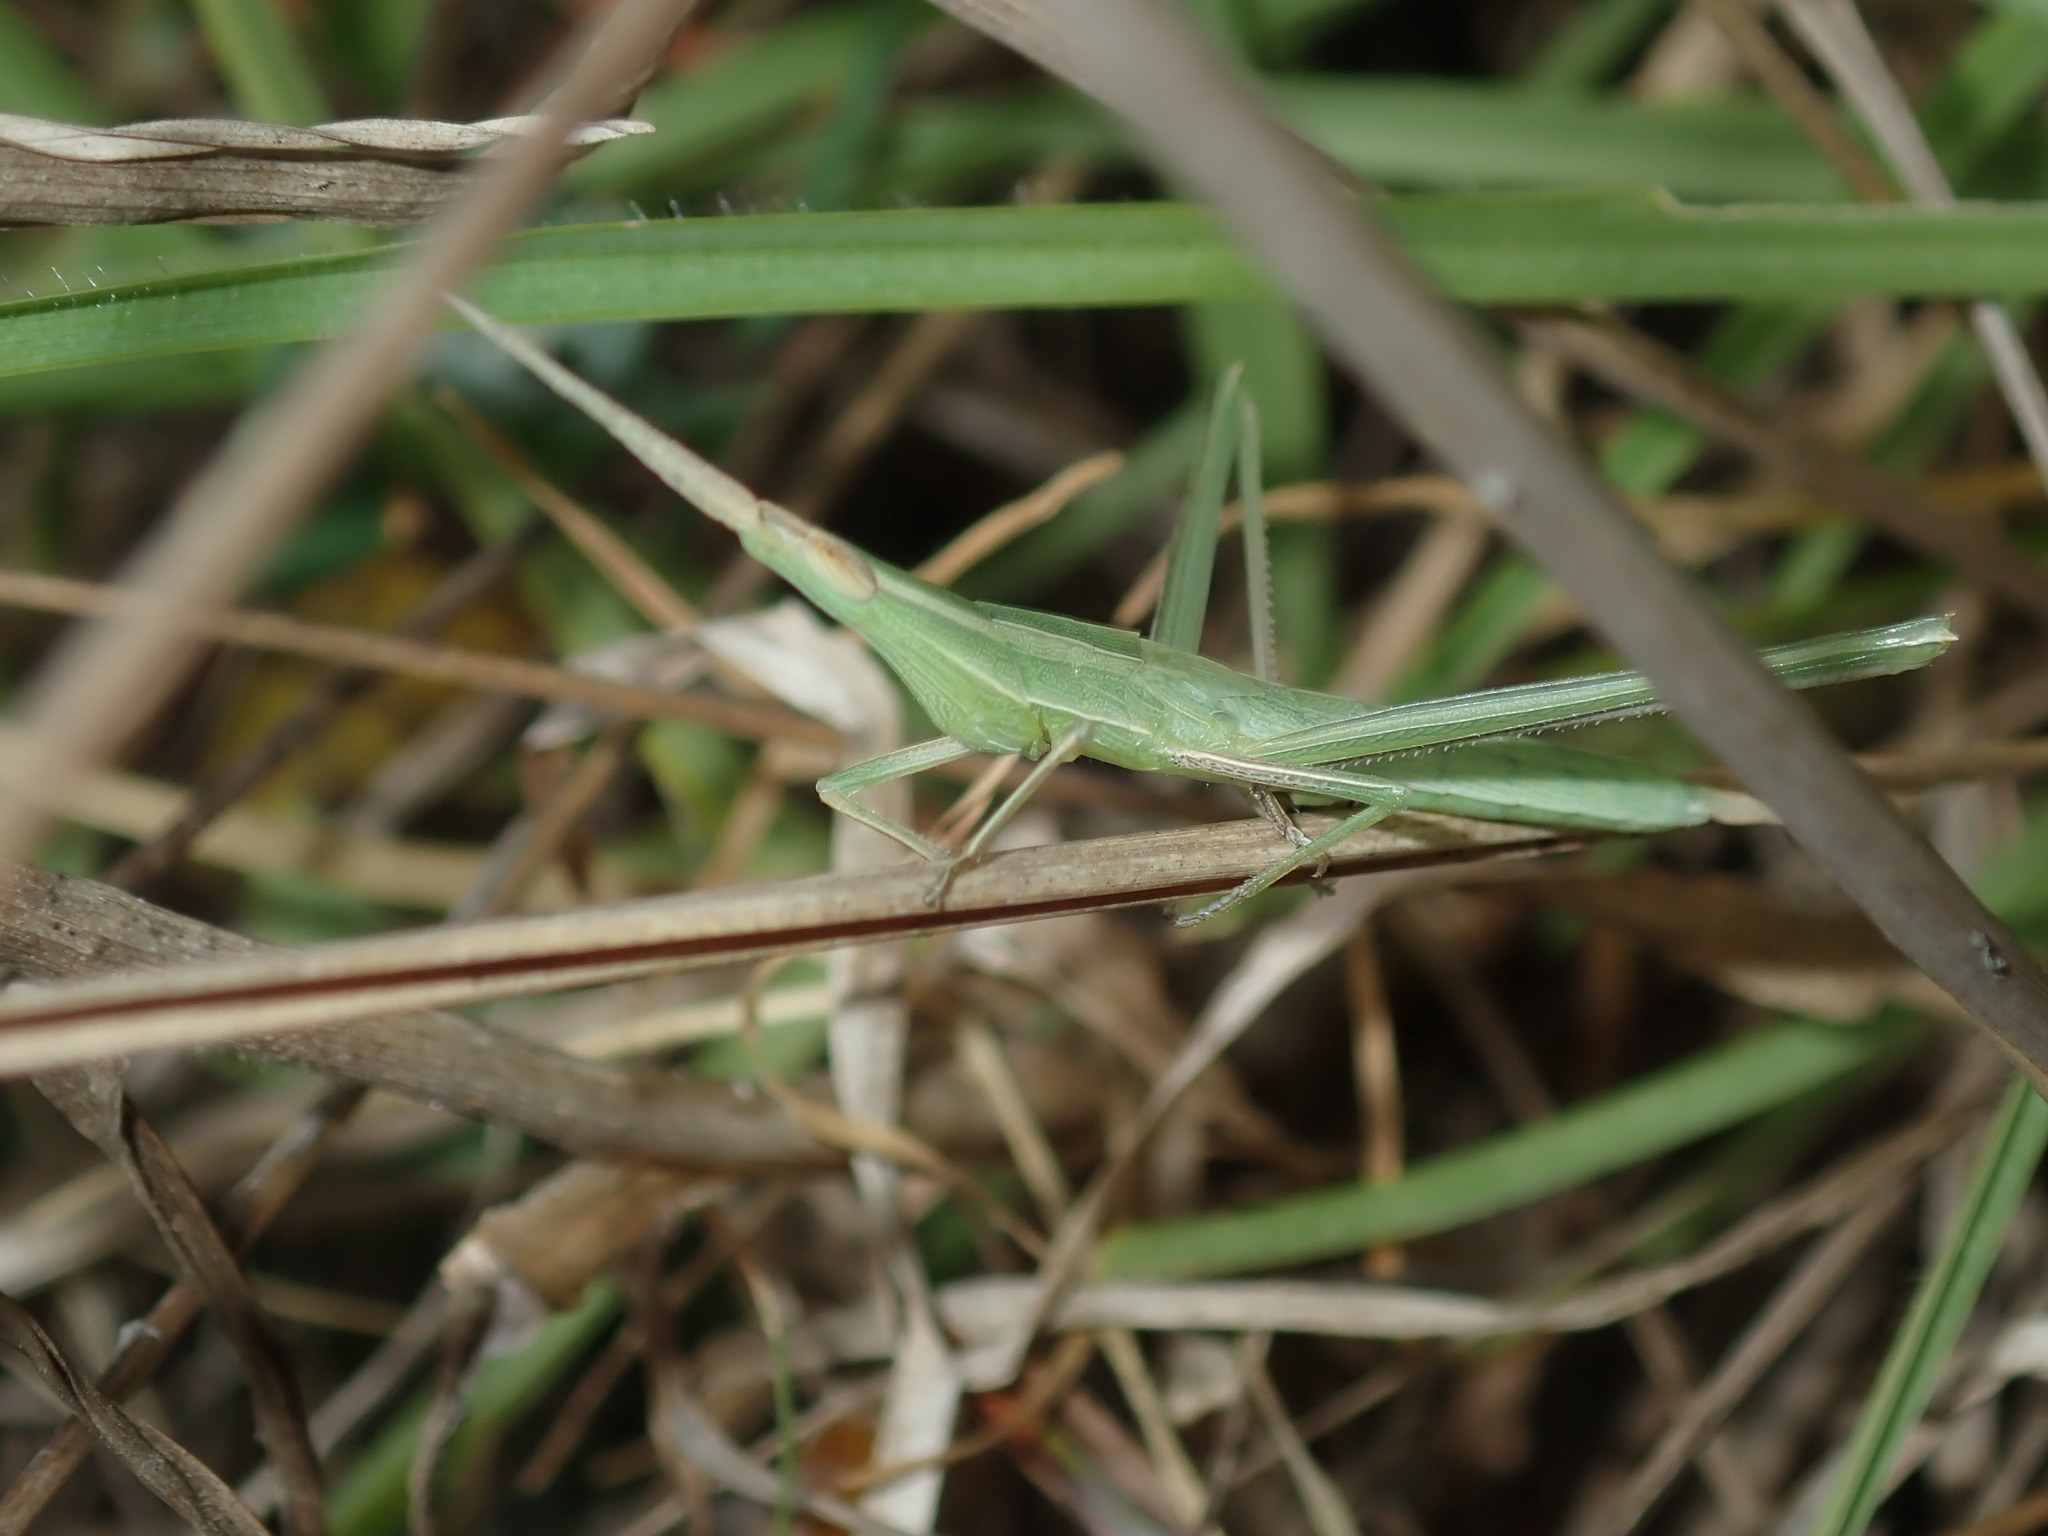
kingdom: Animalia
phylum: Arthropoda
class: Insecta
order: Orthoptera
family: Acrididae
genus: Acrida
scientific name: Acrida conica
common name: Giant green slantface
